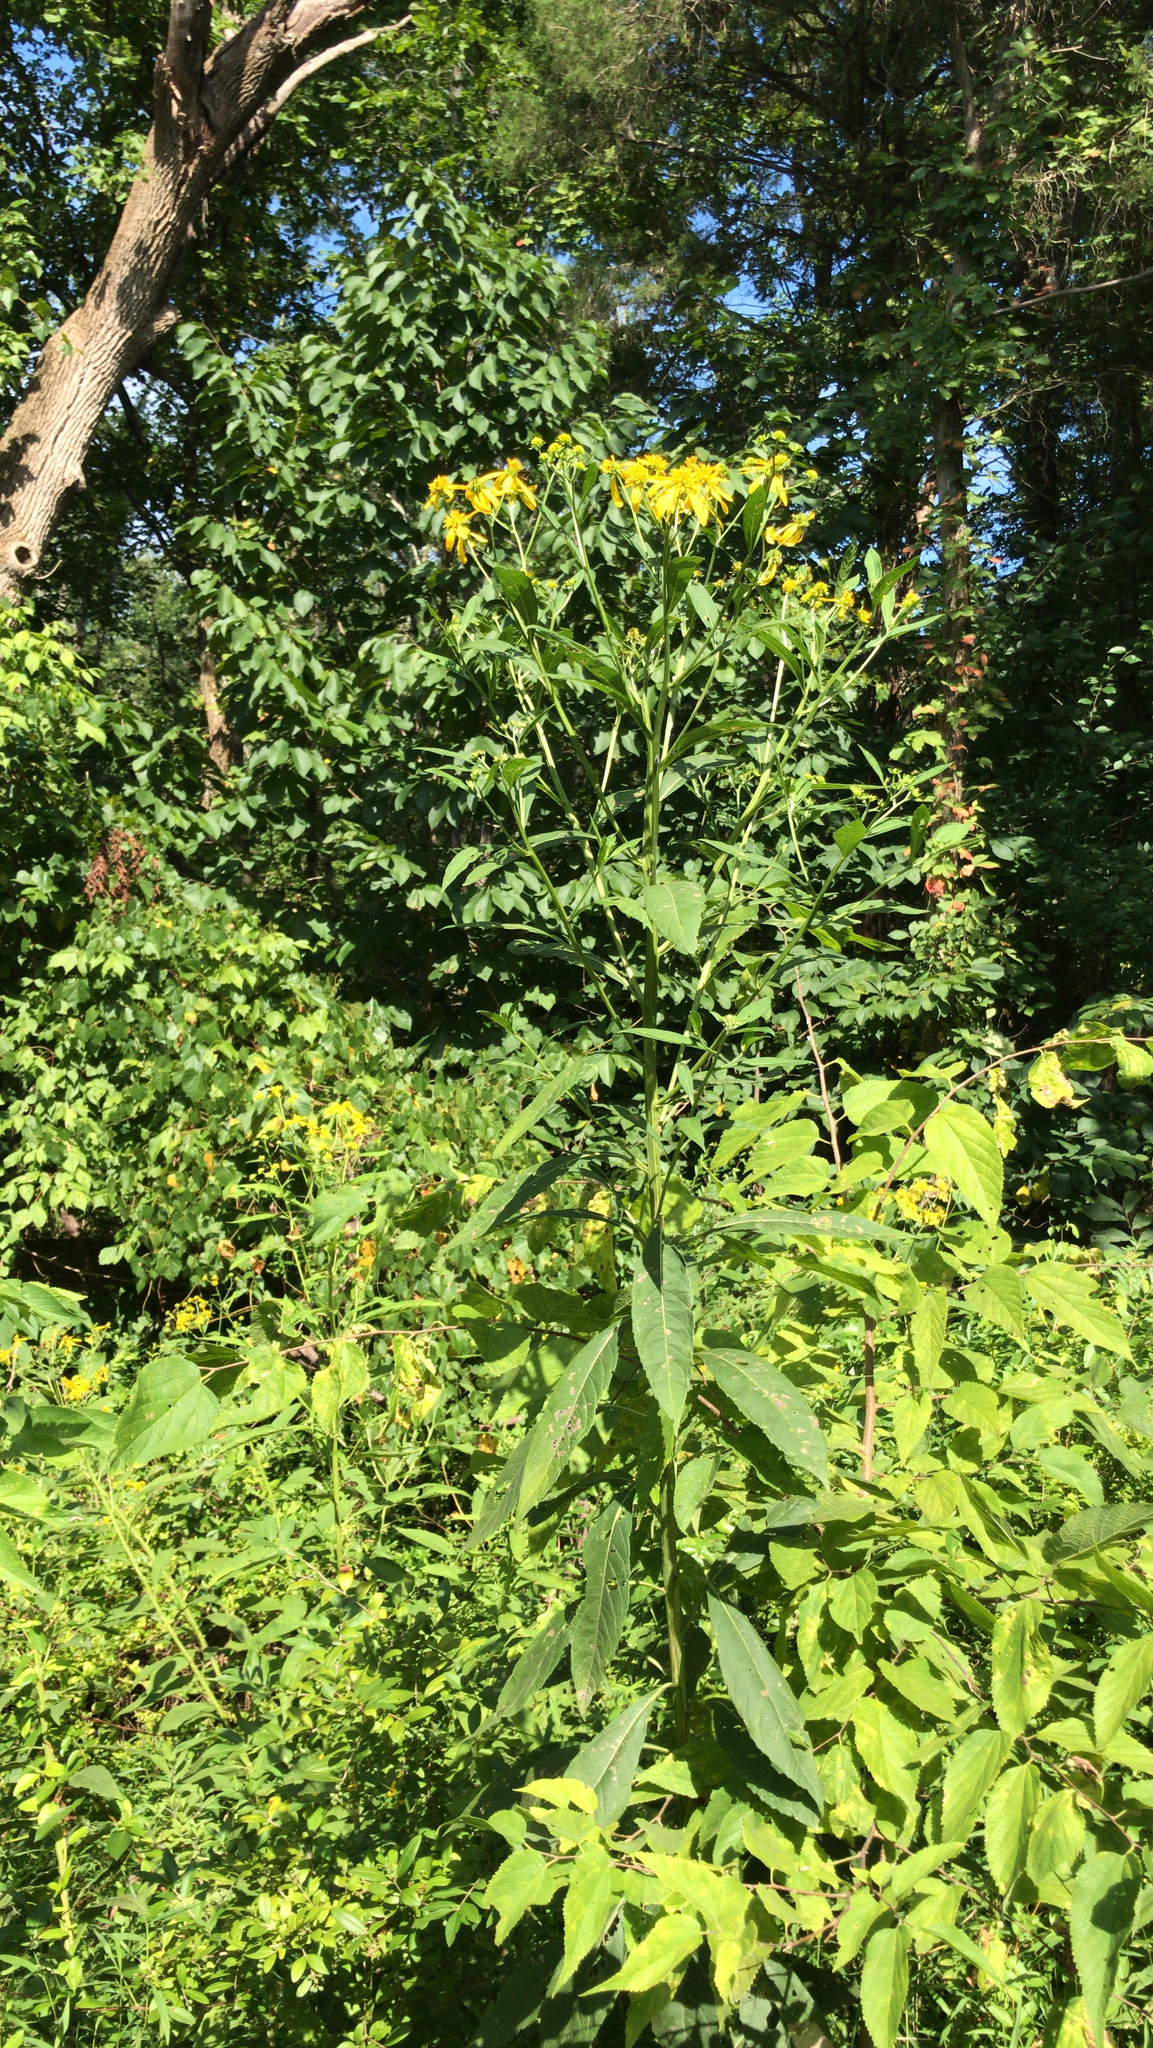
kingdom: Plantae
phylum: Tracheophyta
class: Magnoliopsida
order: Asterales
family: Asteraceae
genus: Verbesina
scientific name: Verbesina alternifolia
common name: Wingstem
